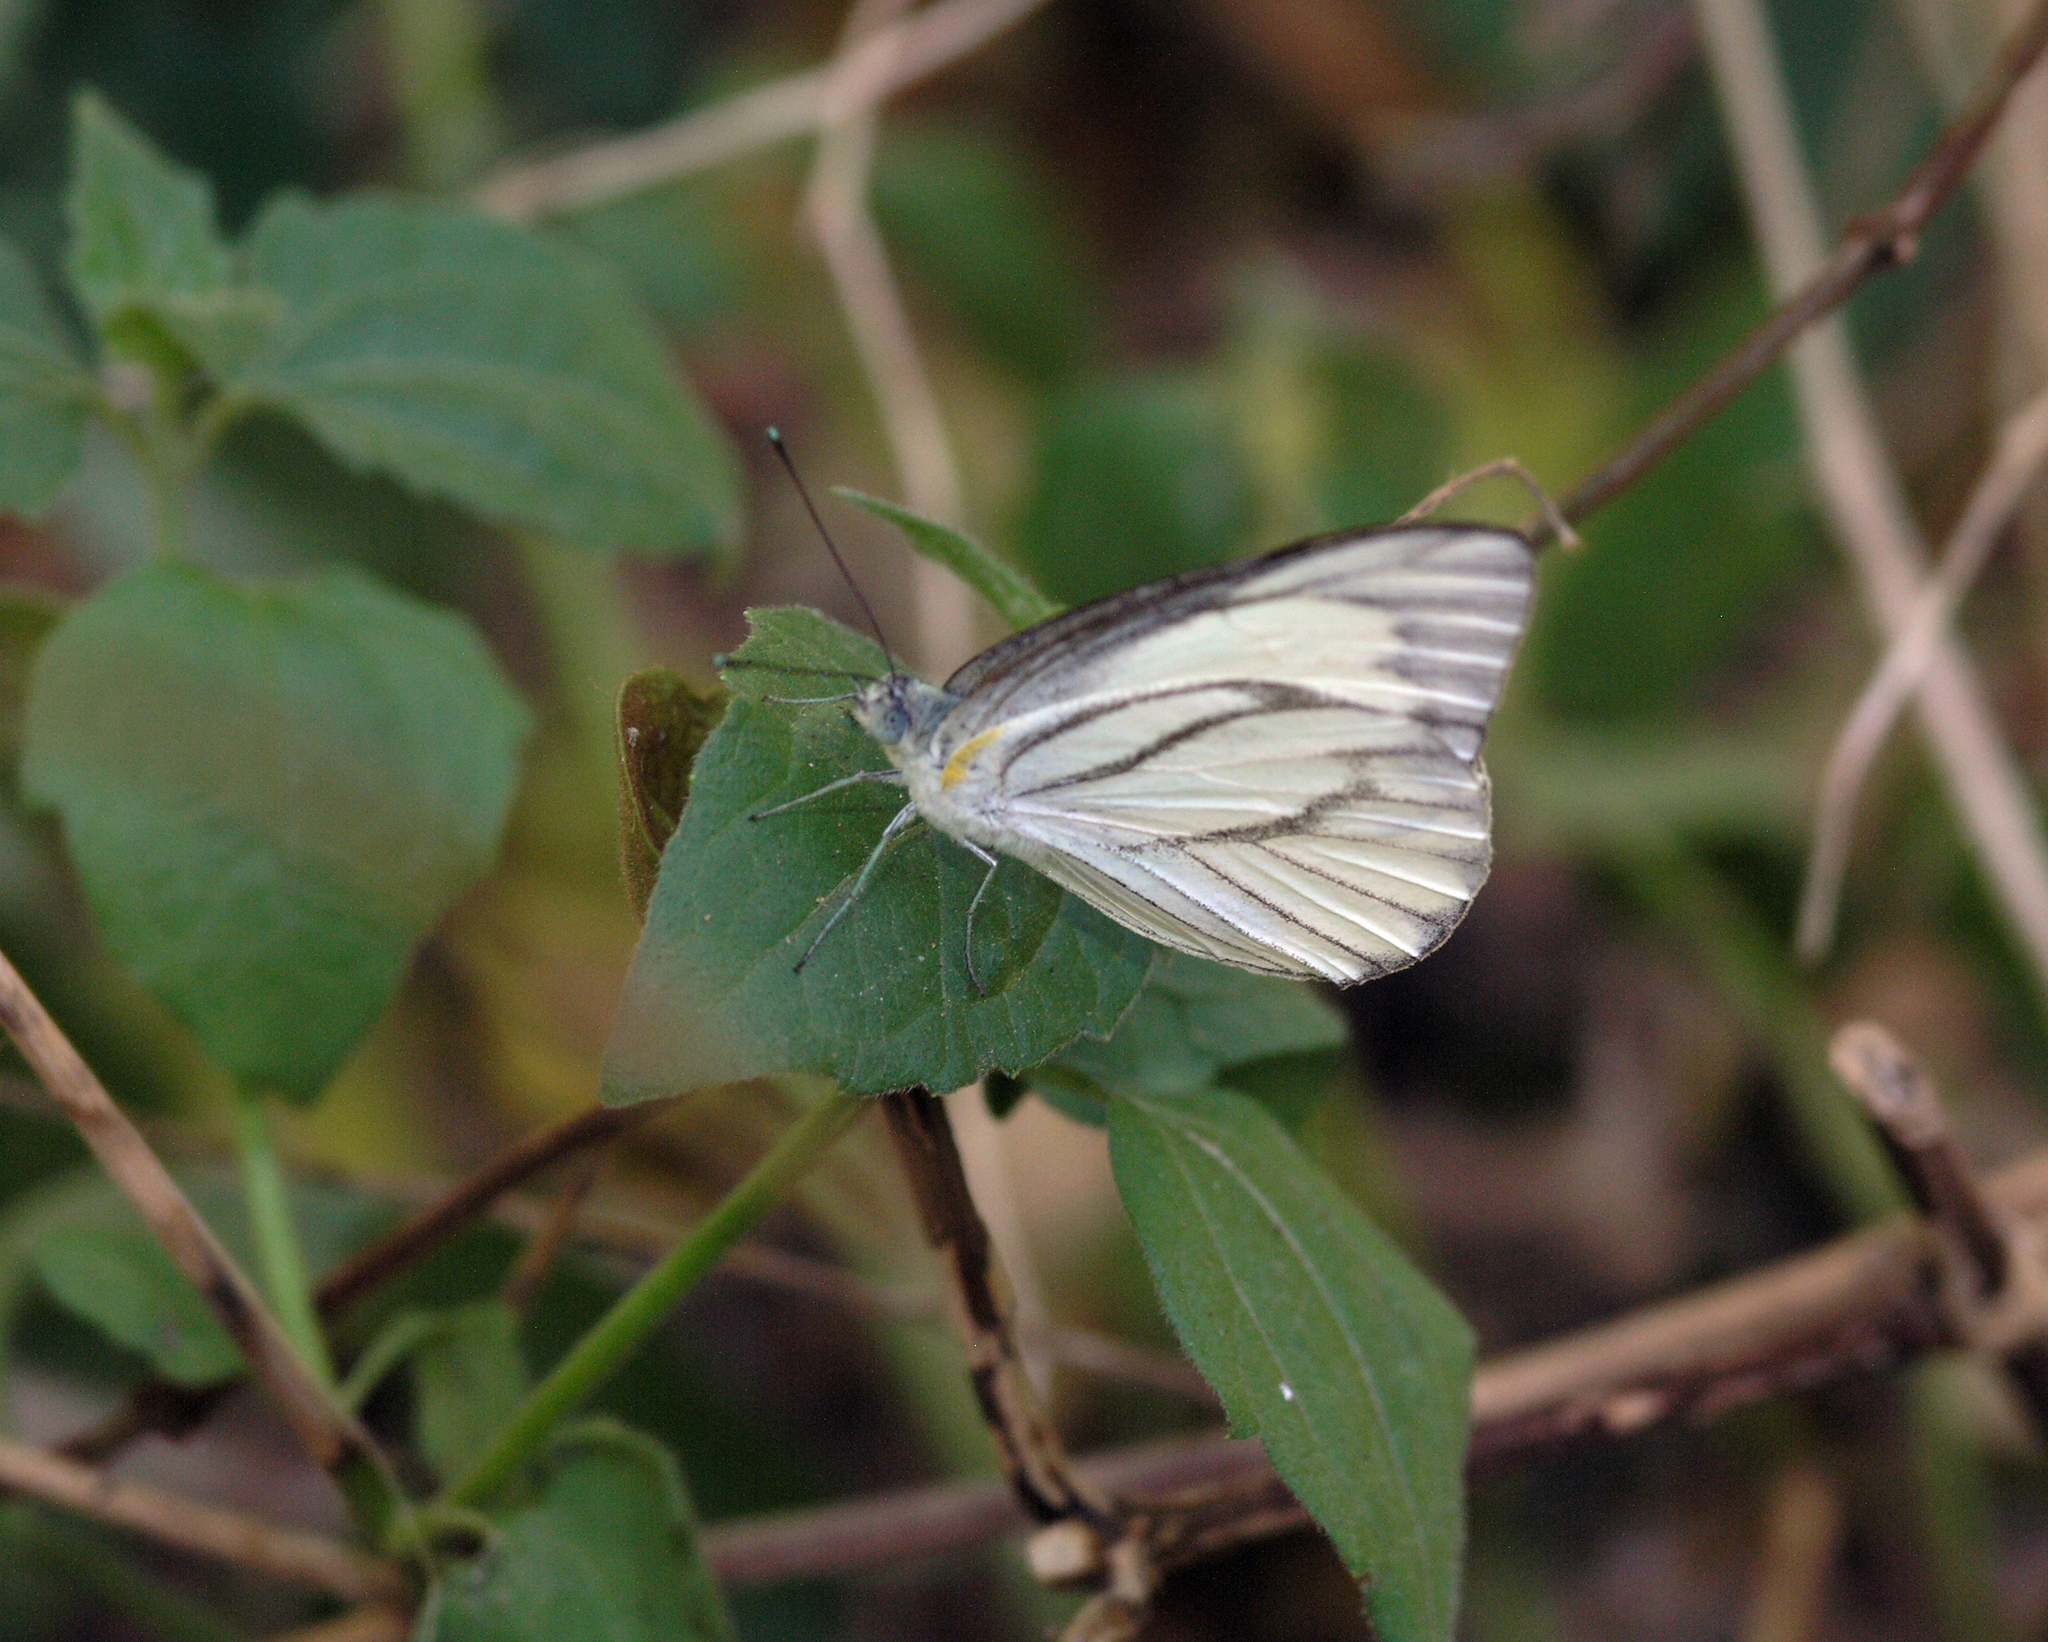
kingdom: Animalia
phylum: Arthropoda
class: Insecta
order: Lepidoptera
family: Pieridae
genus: Appias
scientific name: Appias libythea
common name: Striped albatross
